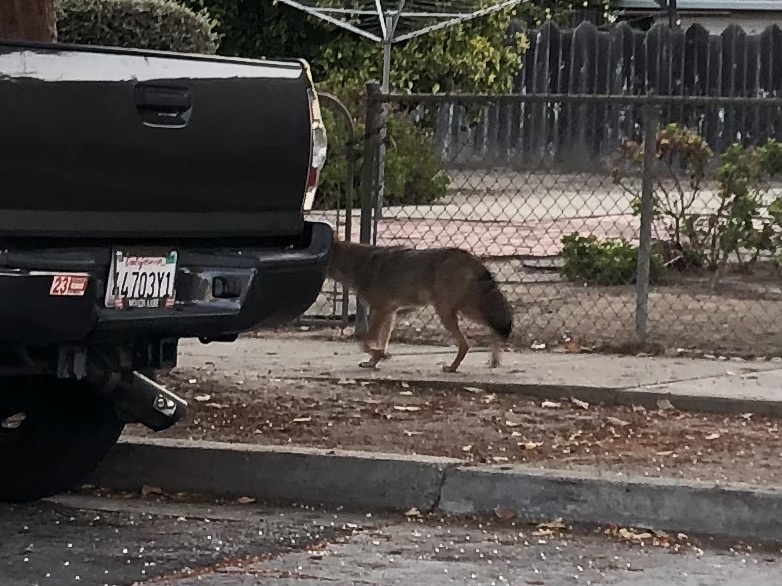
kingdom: Animalia
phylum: Chordata
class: Mammalia
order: Carnivora
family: Canidae
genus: Canis
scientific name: Canis latrans
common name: Coyote
